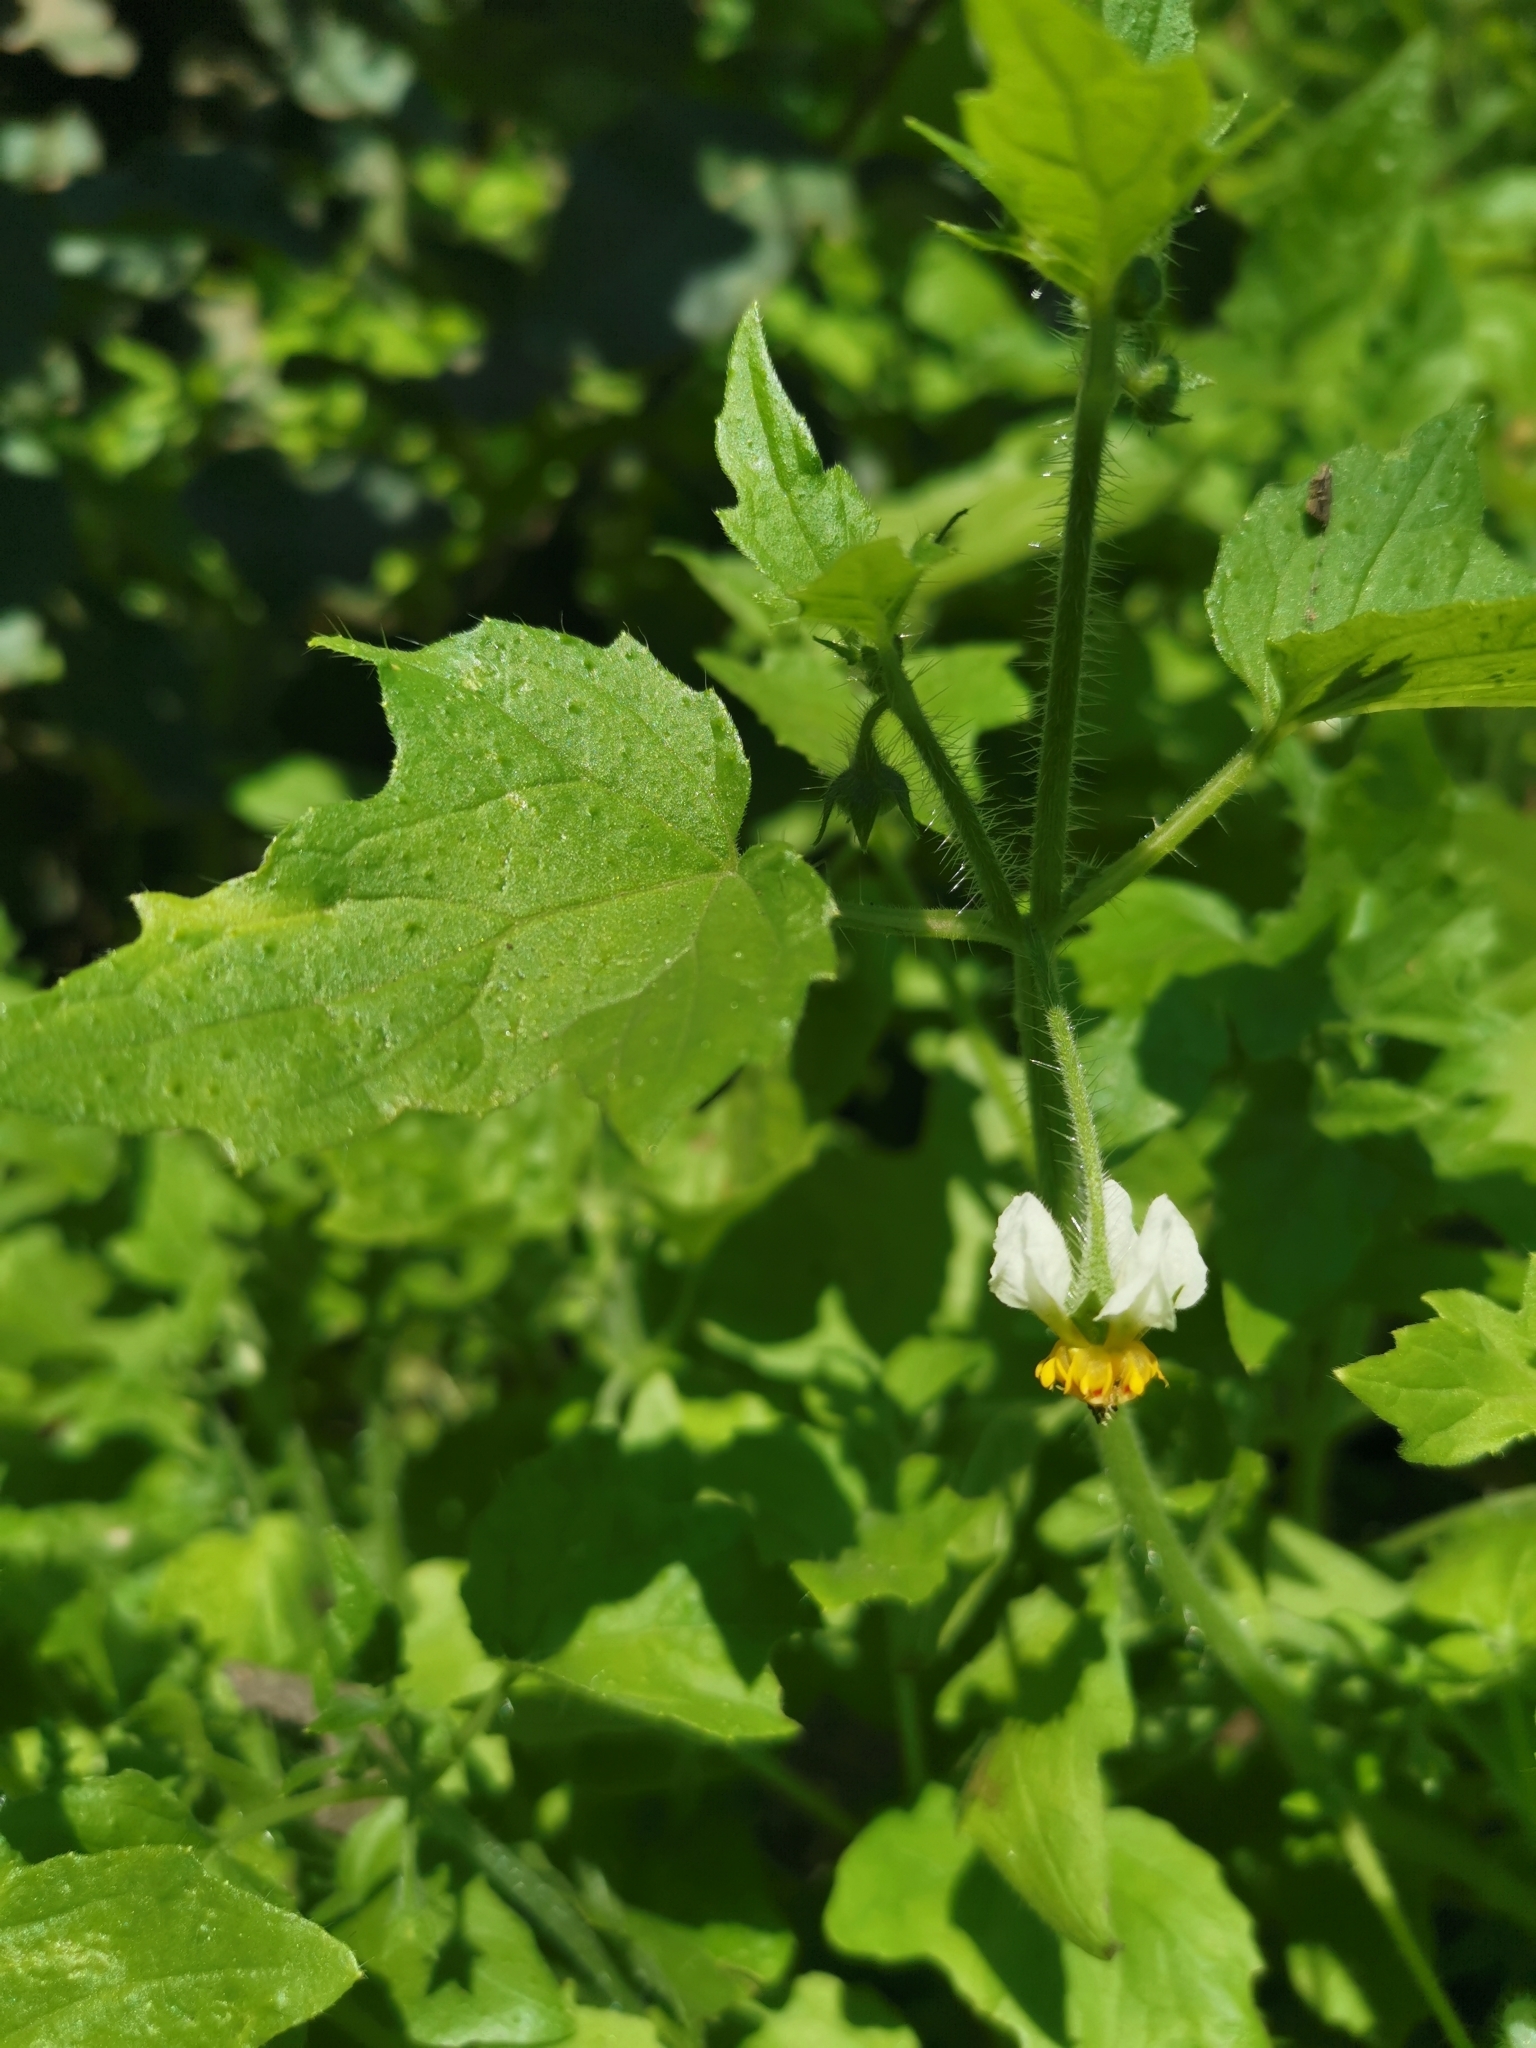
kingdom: Plantae
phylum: Tracheophyta
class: Magnoliopsida
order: Cornales
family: Loasaceae
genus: Loasa
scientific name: Loasa triloba
